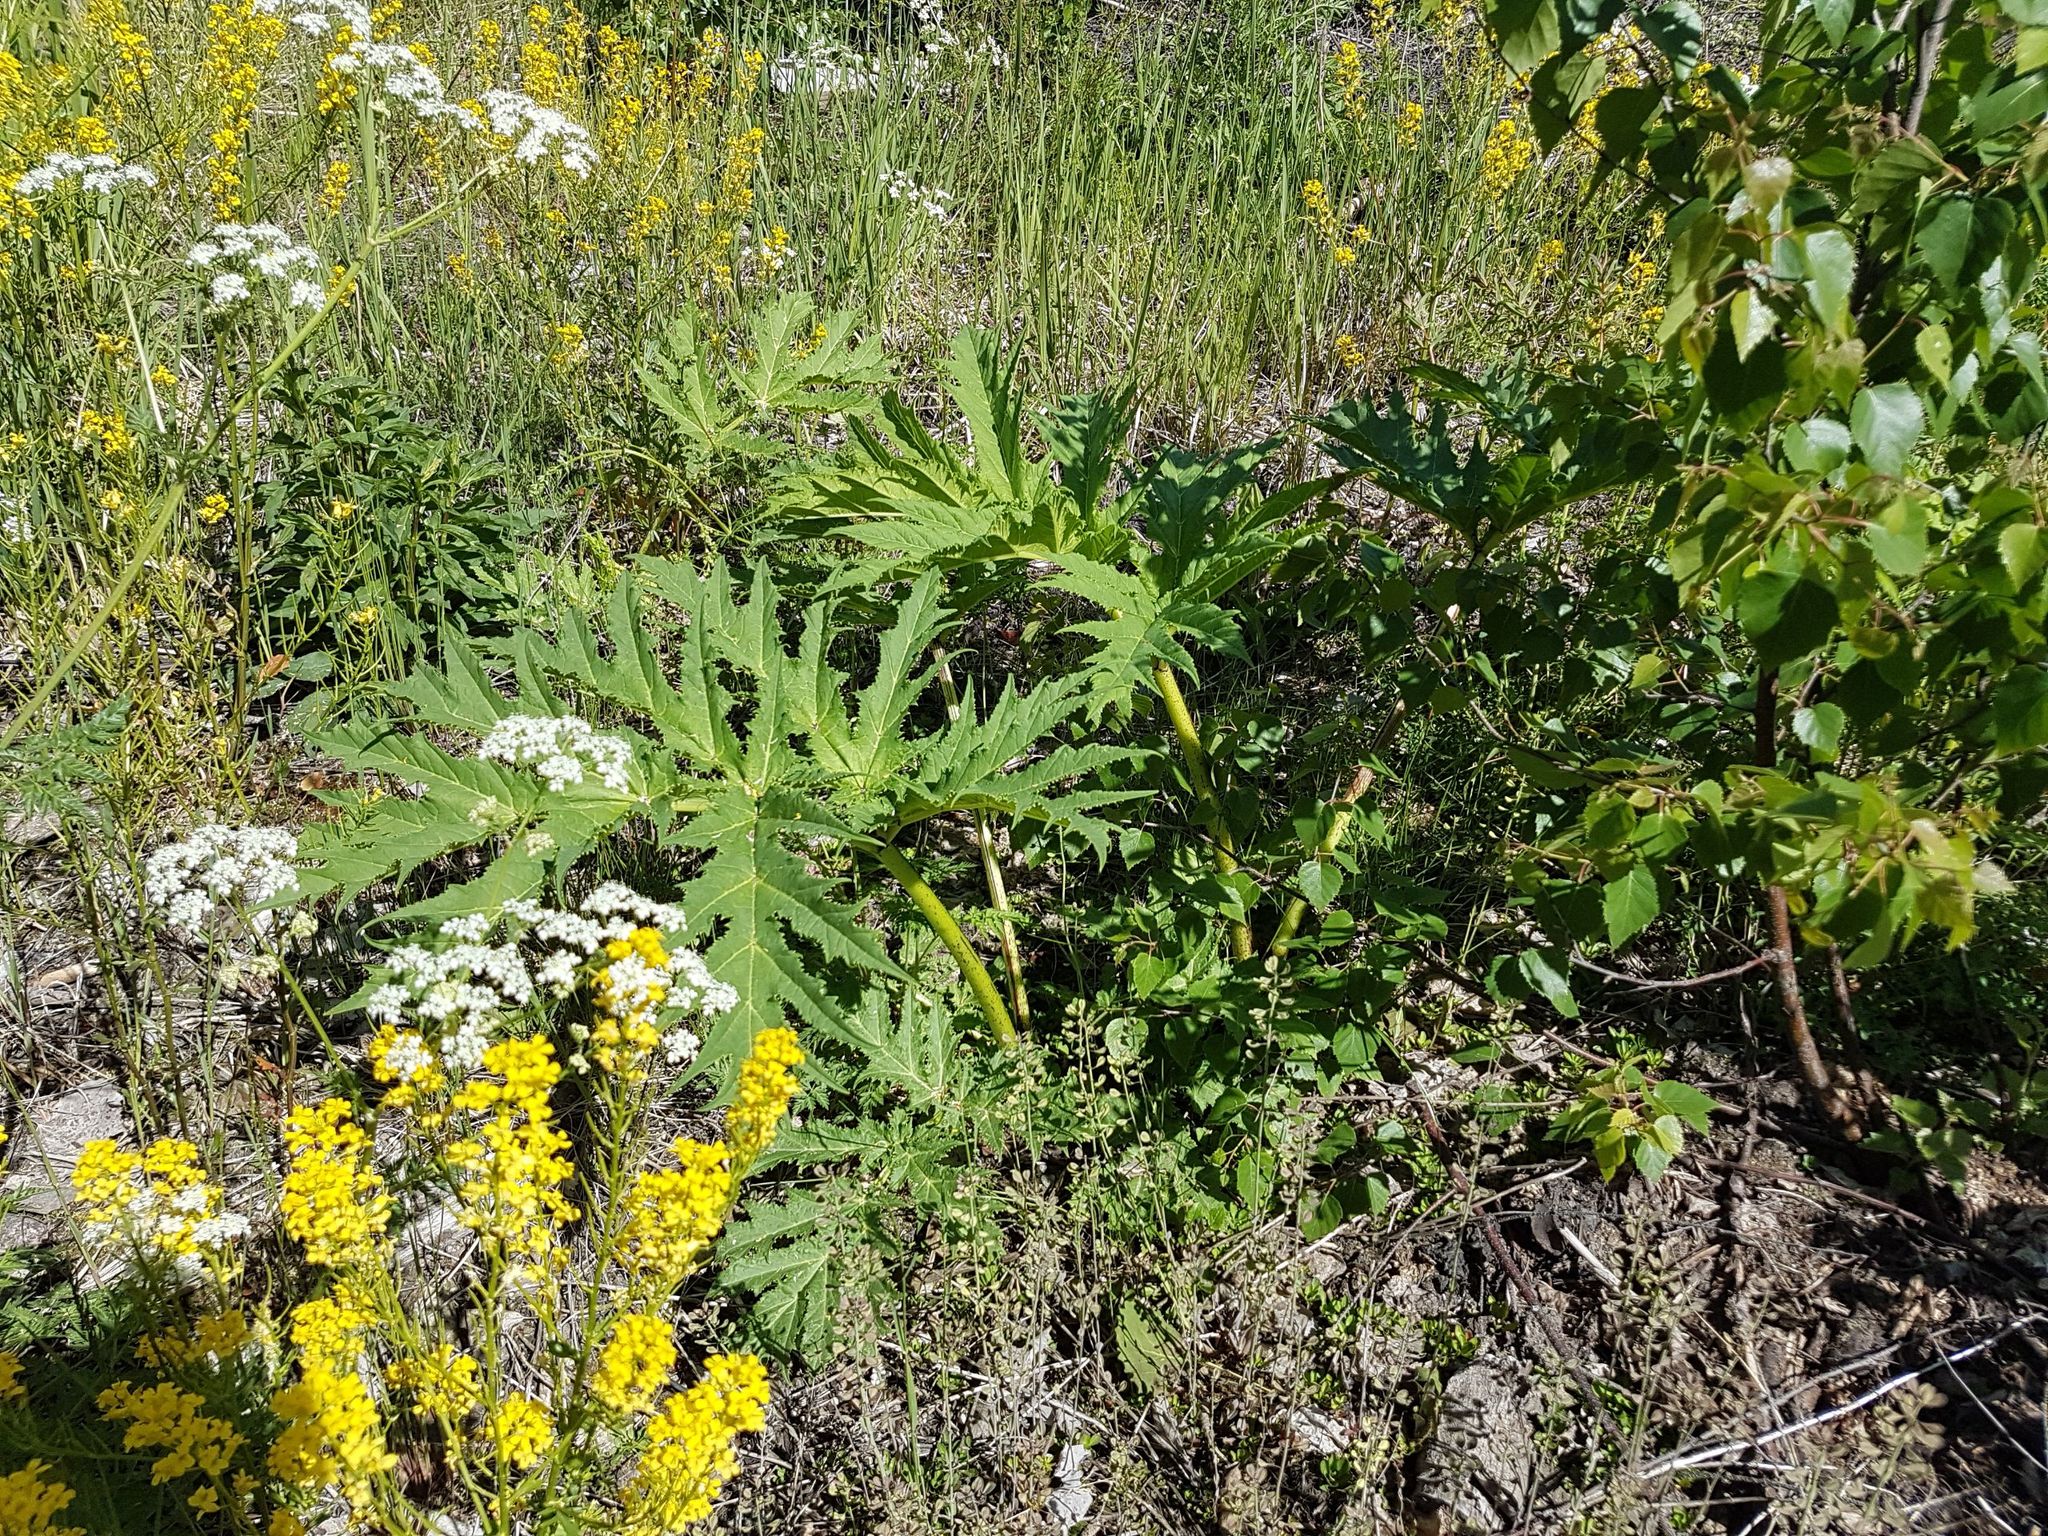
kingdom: Plantae
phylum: Tracheophyta
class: Magnoliopsida
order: Apiales
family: Apiaceae
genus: Heracleum
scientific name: Heracleum mantegazzianum
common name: Giant hogweed
